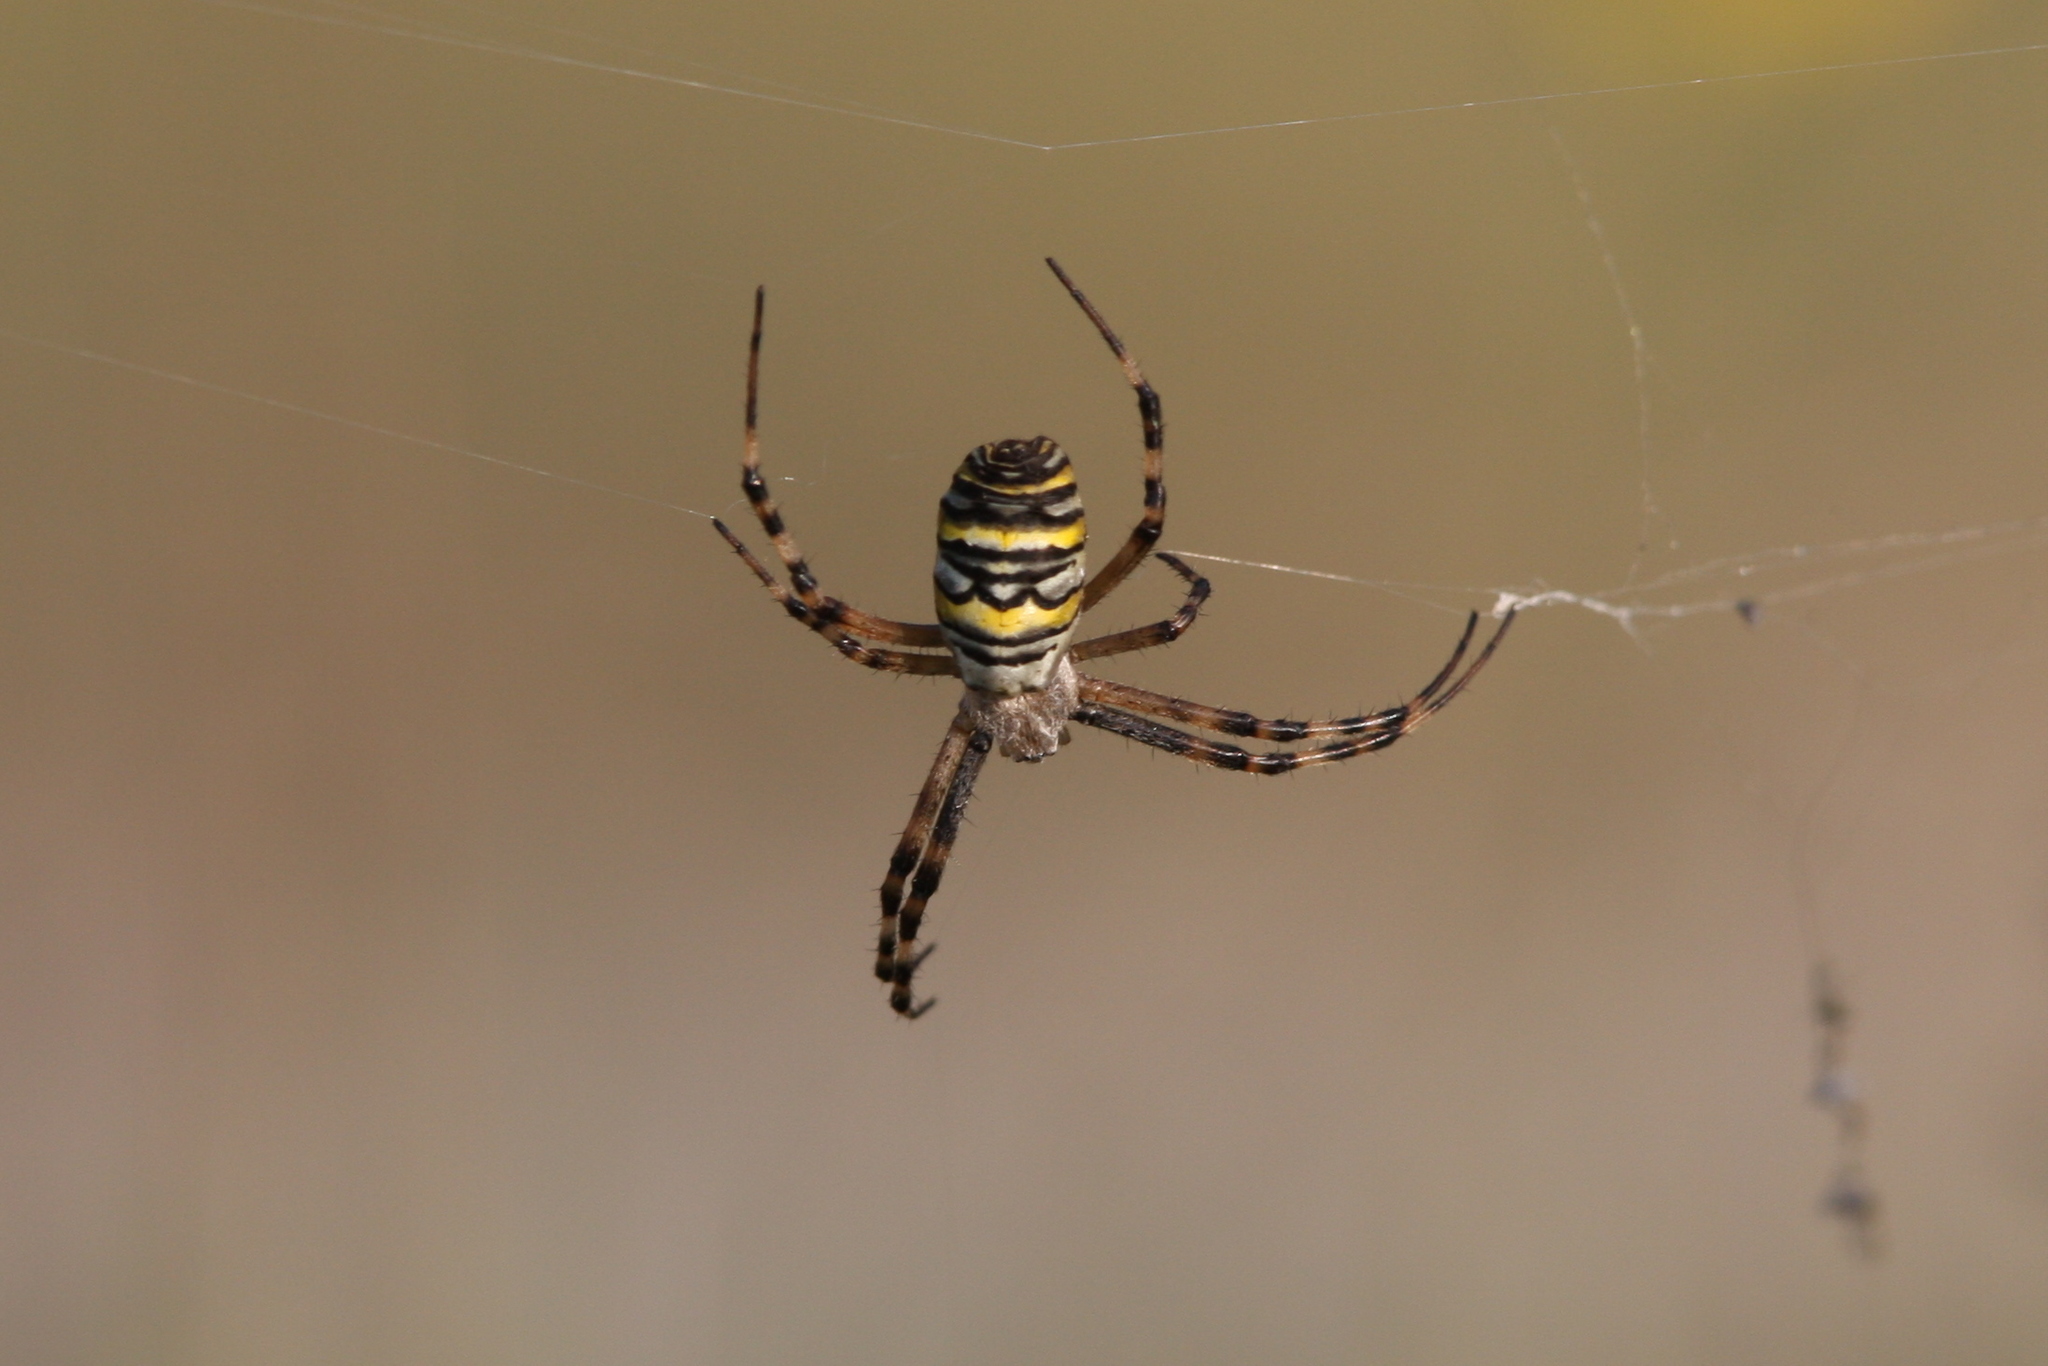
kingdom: Animalia
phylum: Arthropoda
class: Arachnida
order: Araneae
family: Araneidae
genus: Argiope
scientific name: Argiope bruennichi
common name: Wasp spider
